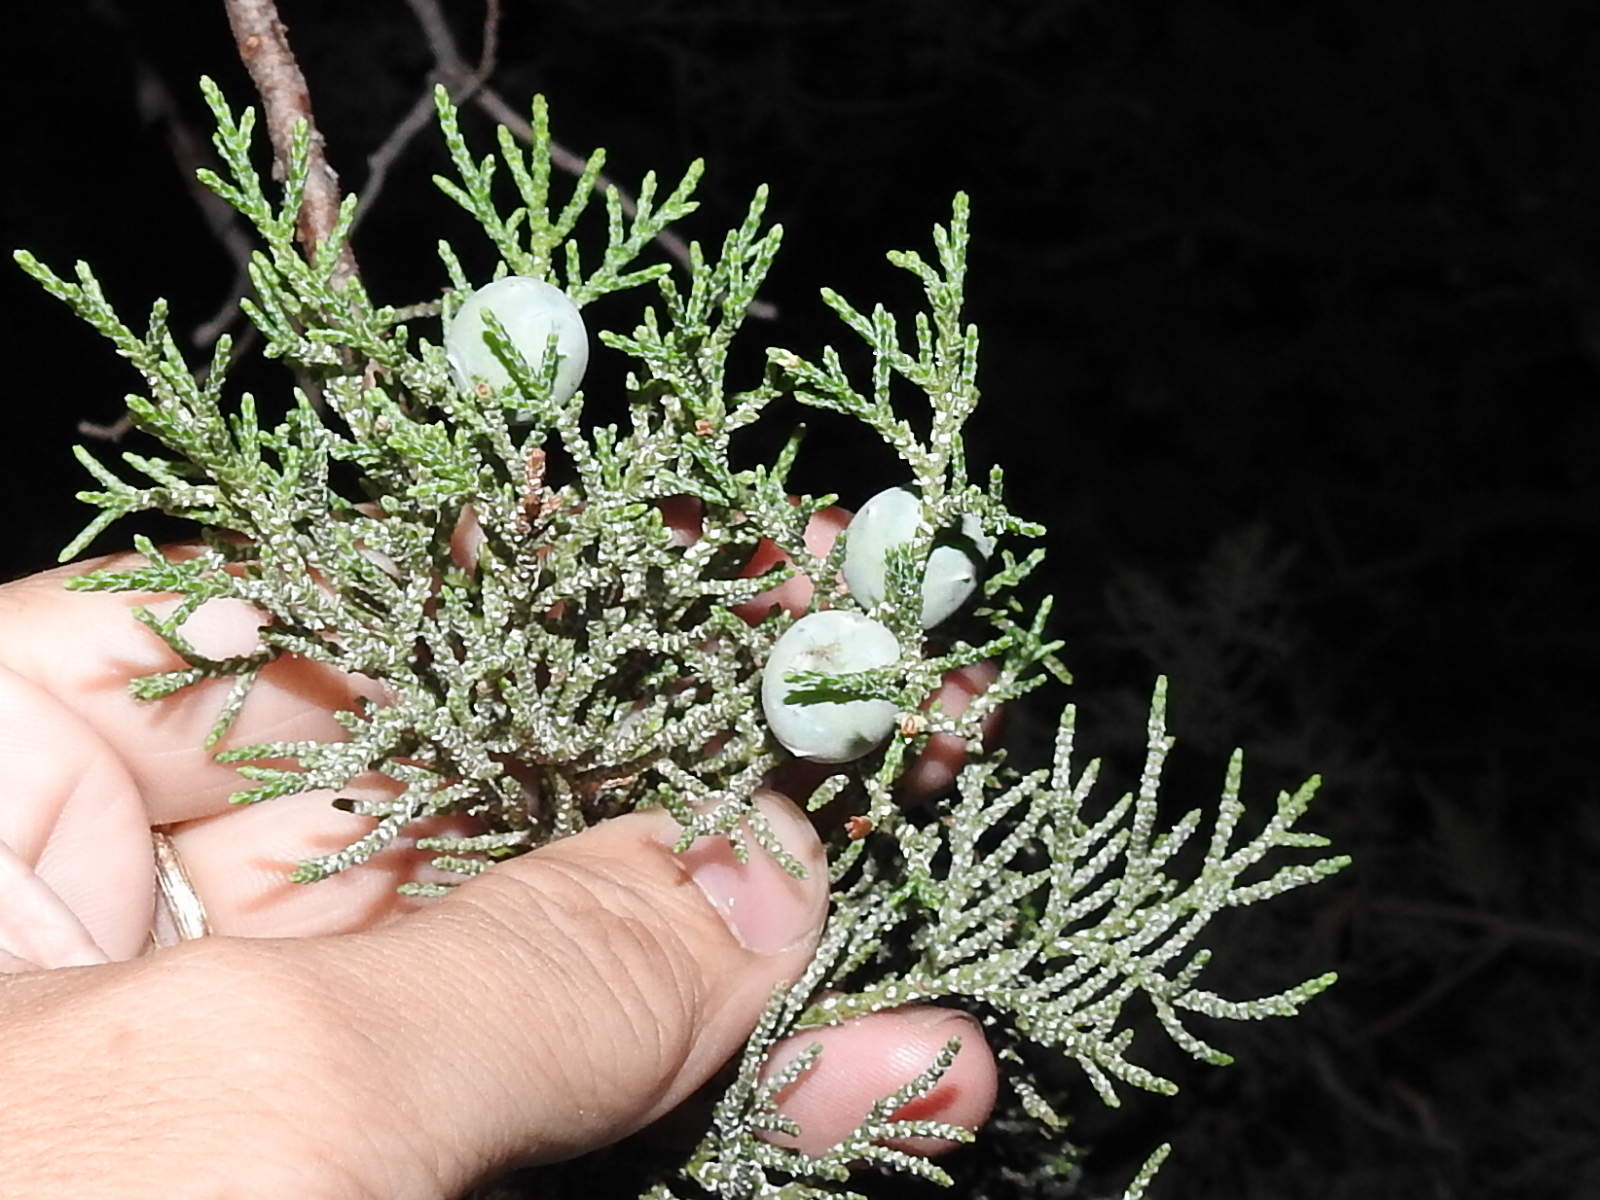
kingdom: Plantae
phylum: Tracheophyta
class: Pinopsida
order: Pinales
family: Cupressaceae
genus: Juniperus
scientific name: Juniperus deppeana
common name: Alligator juniper
